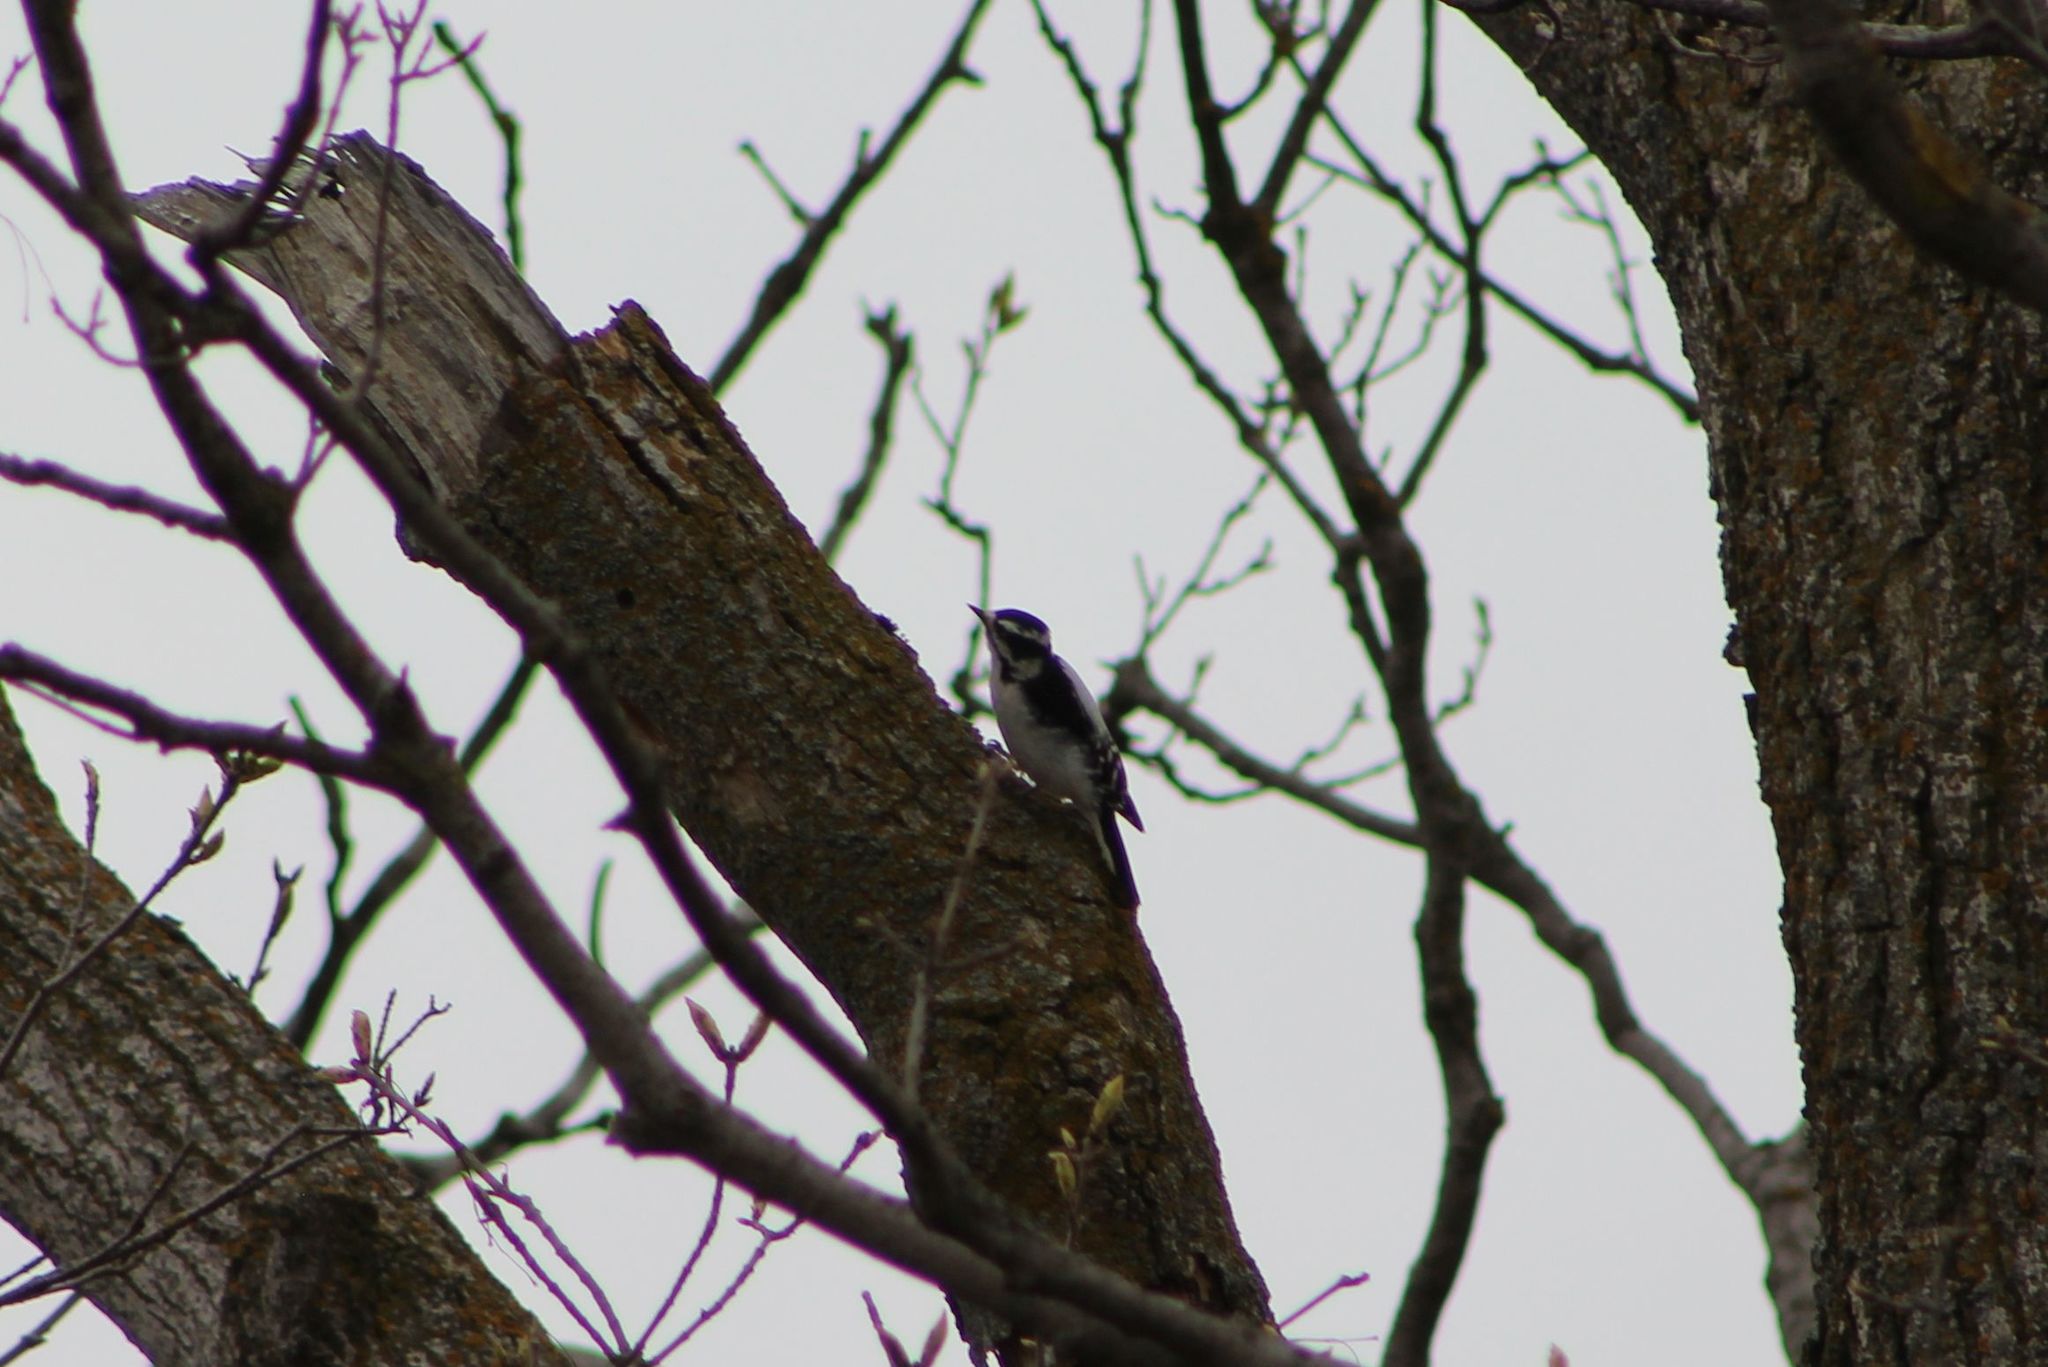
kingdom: Animalia
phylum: Chordata
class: Aves
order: Piciformes
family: Picidae
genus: Dryobates
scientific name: Dryobates pubescens
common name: Downy woodpecker
